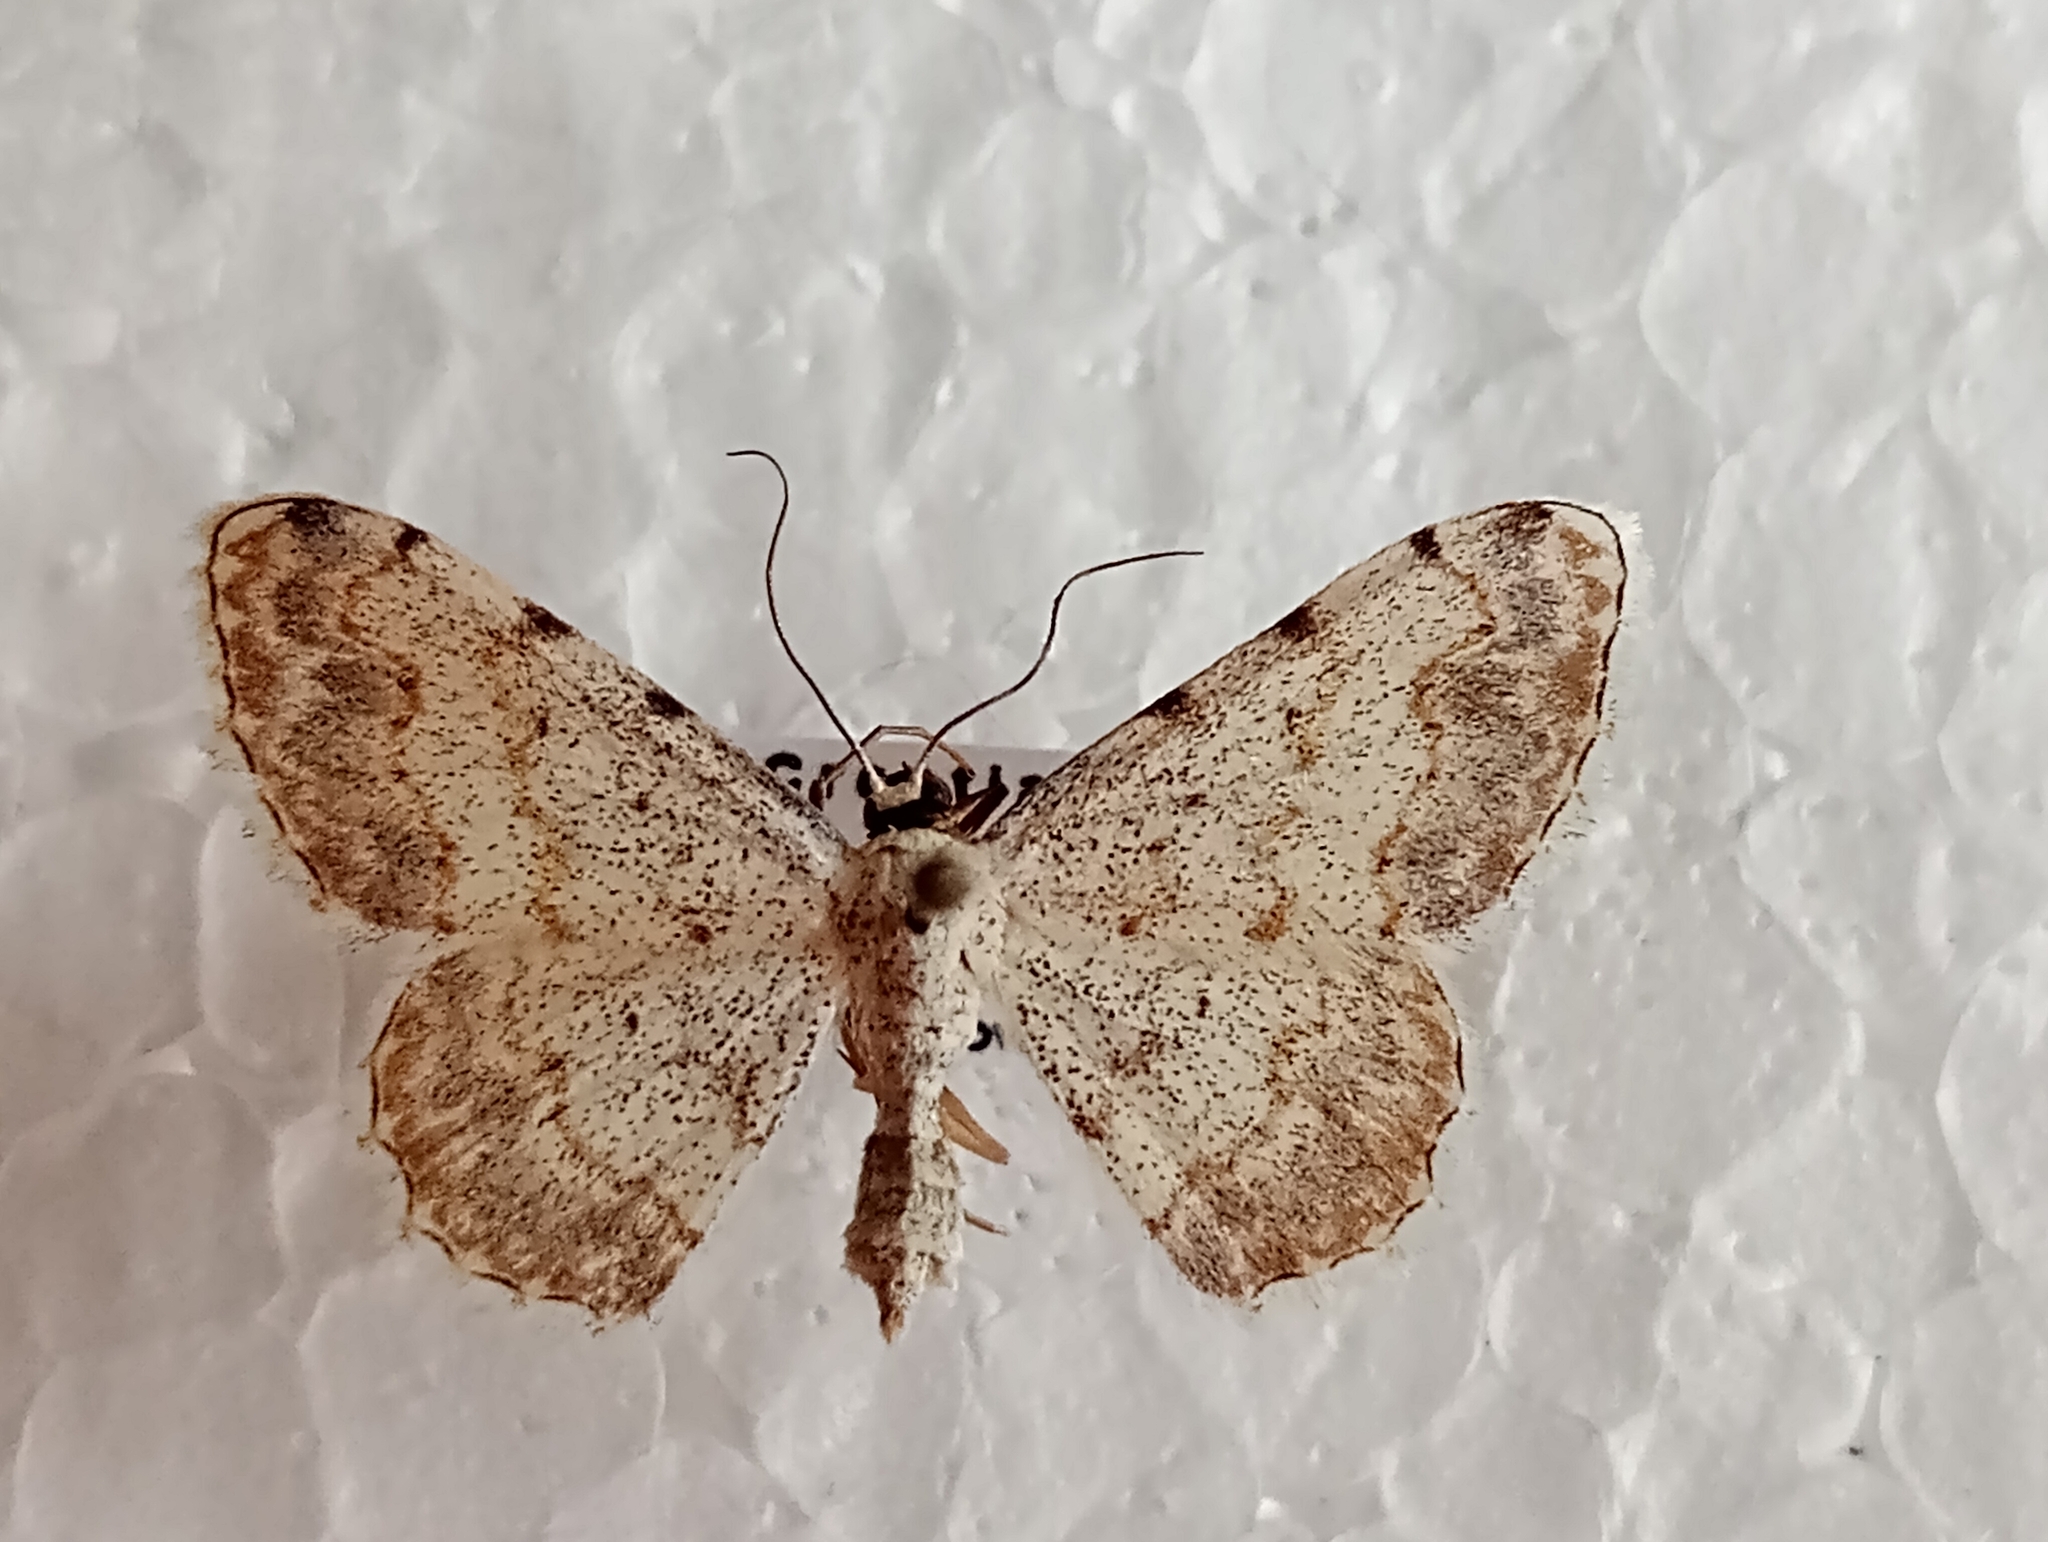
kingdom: Animalia
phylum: Arthropoda
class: Insecta
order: Lepidoptera
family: Geometridae
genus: Scopula
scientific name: Scopula submutata
